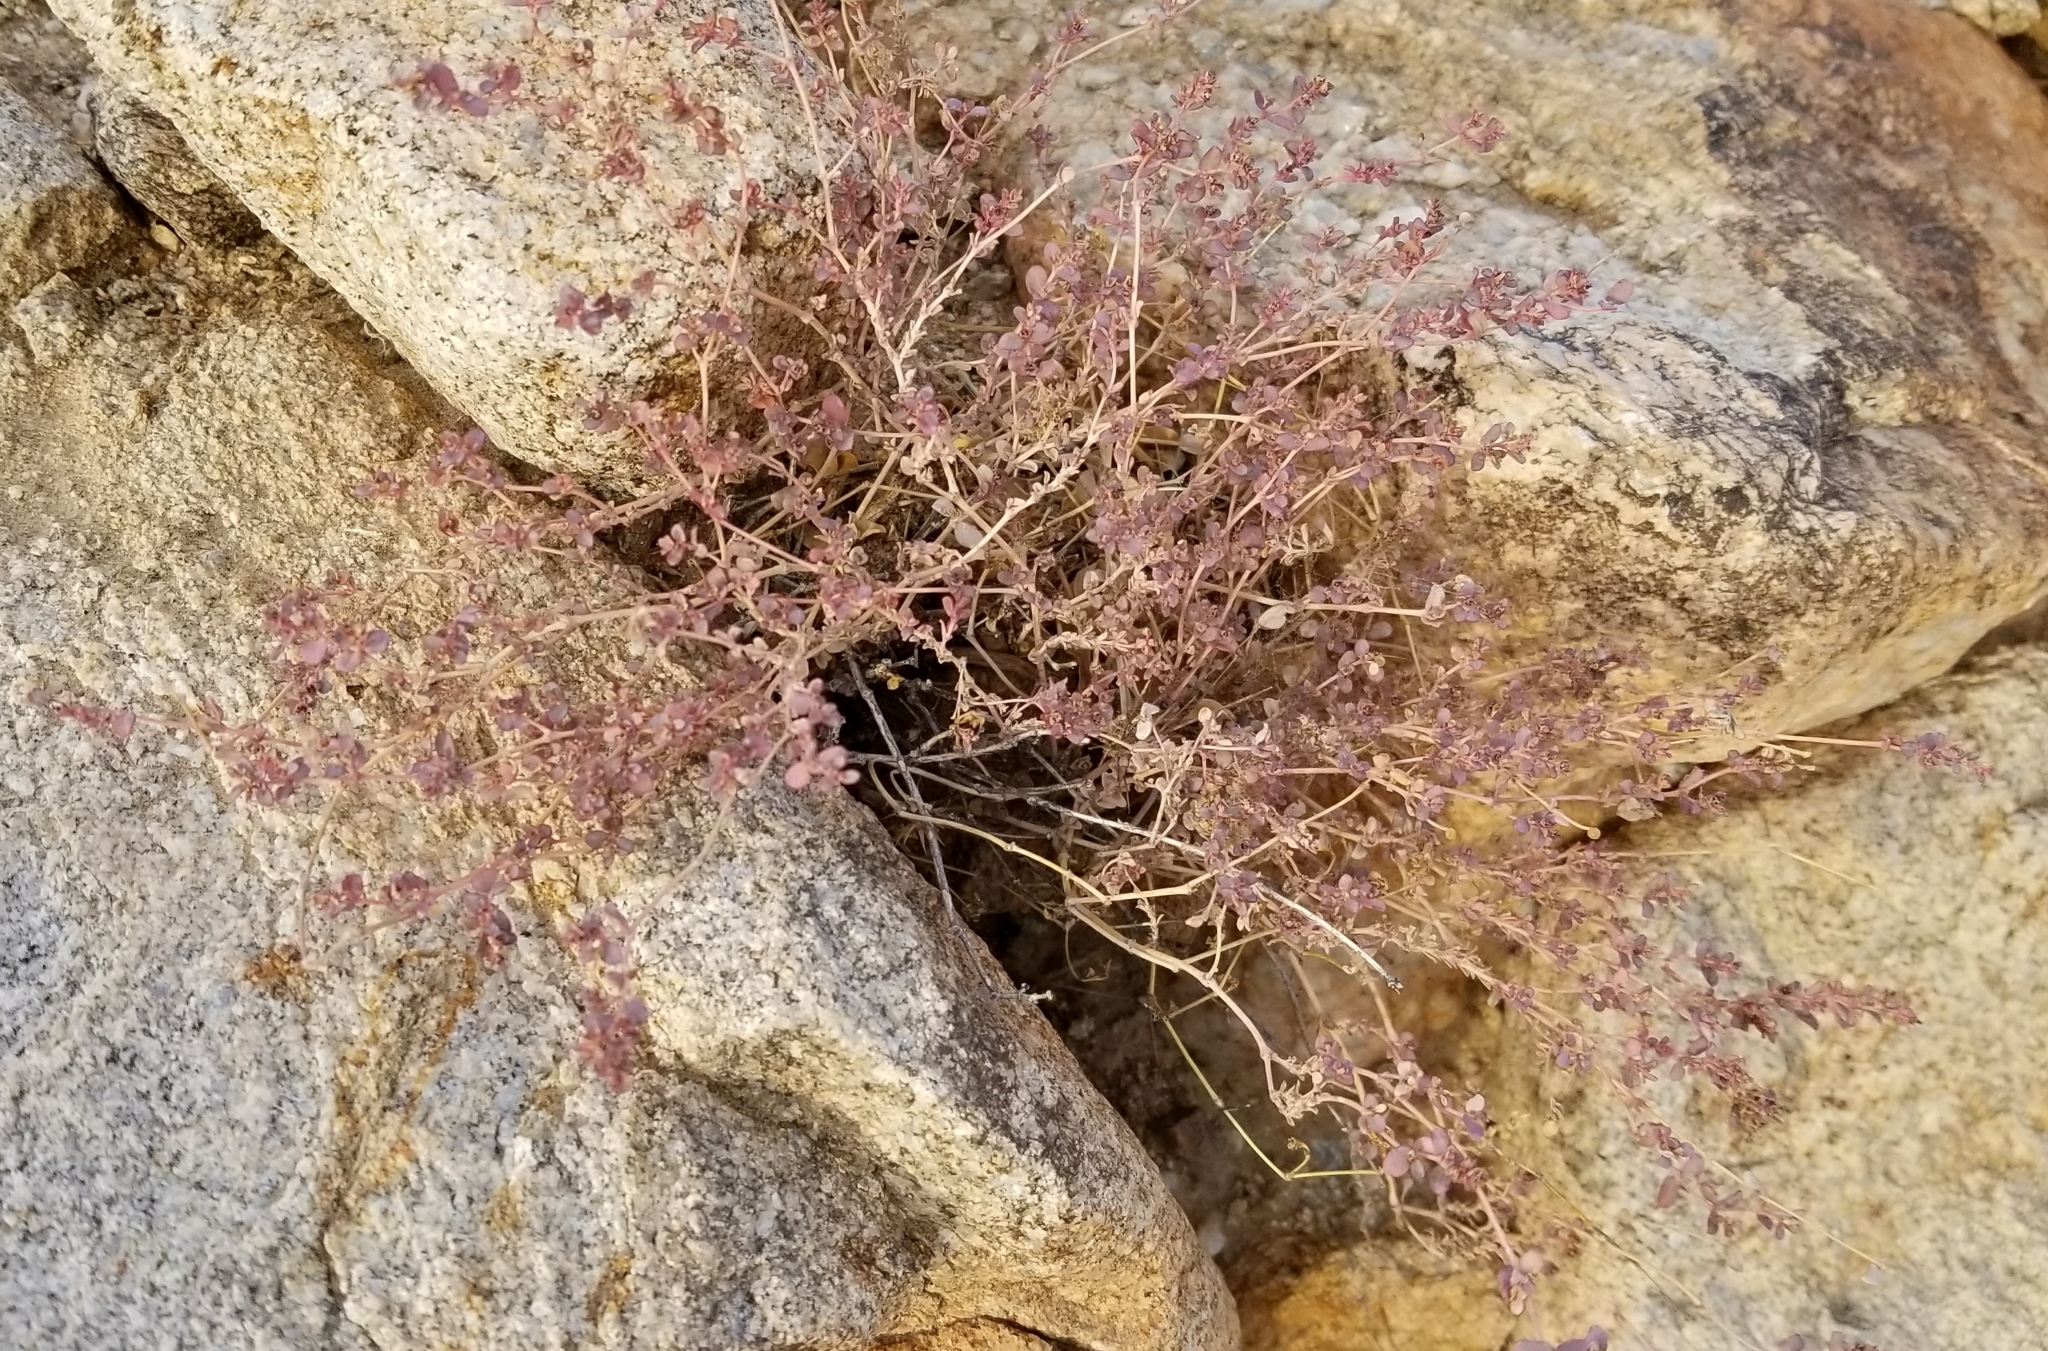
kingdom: Plantae
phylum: Tracheophyta
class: Magnoliopsida
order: Malpighiales
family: Euphorbiaceae
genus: Euphorbia
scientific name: Euphorbia polycarpa
